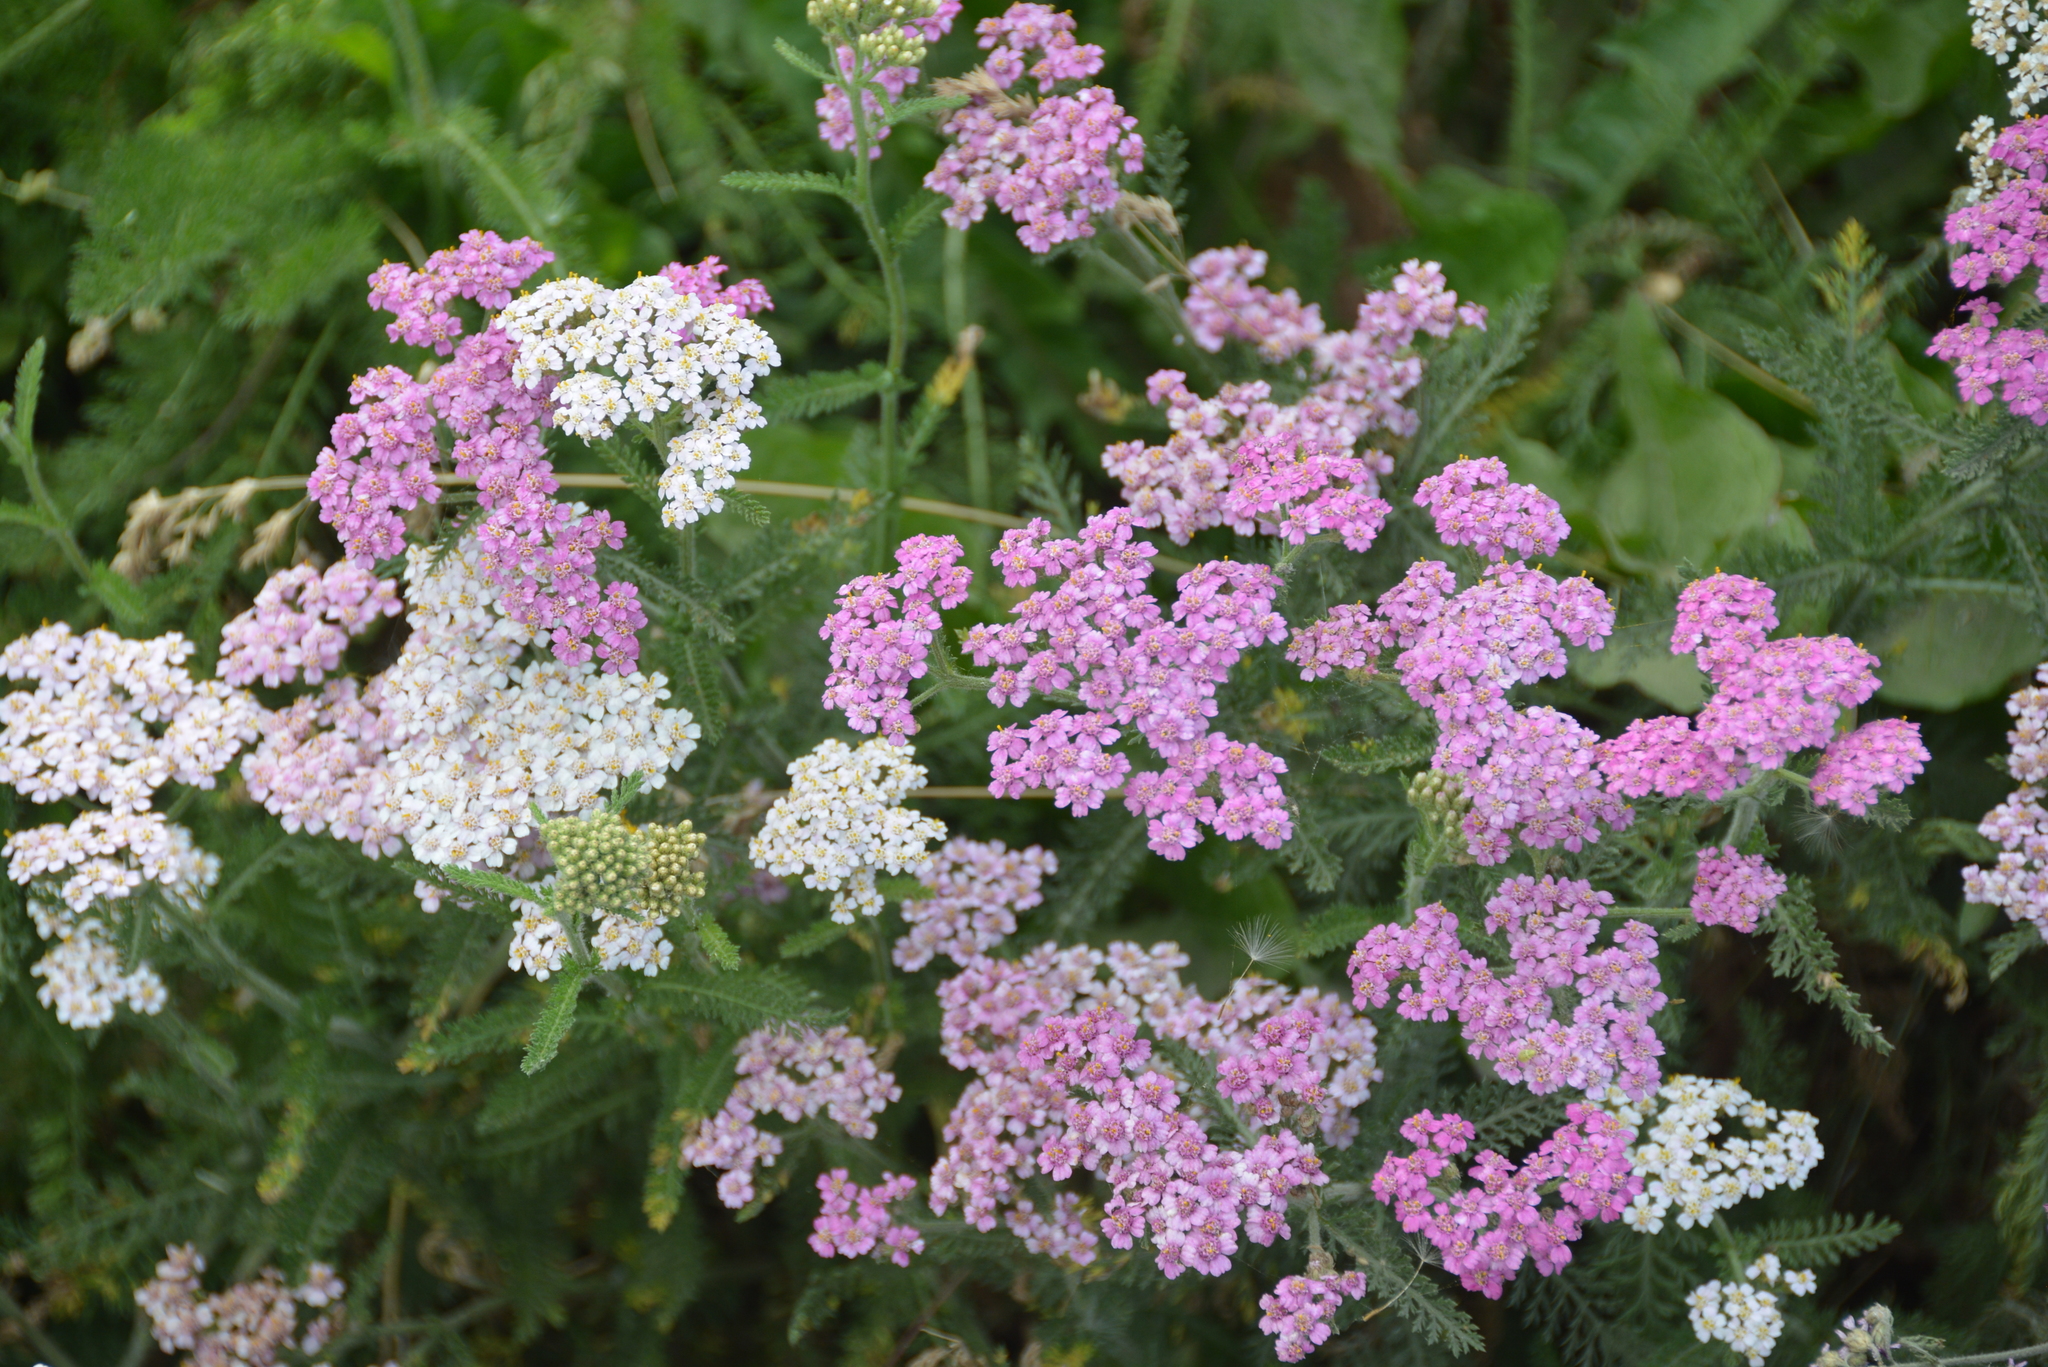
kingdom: Plantae
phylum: Tracheophyta
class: Magnoliopsida
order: Asterales
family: Asteraceae
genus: Achillea
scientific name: Achillea millefolium
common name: Yarrow
